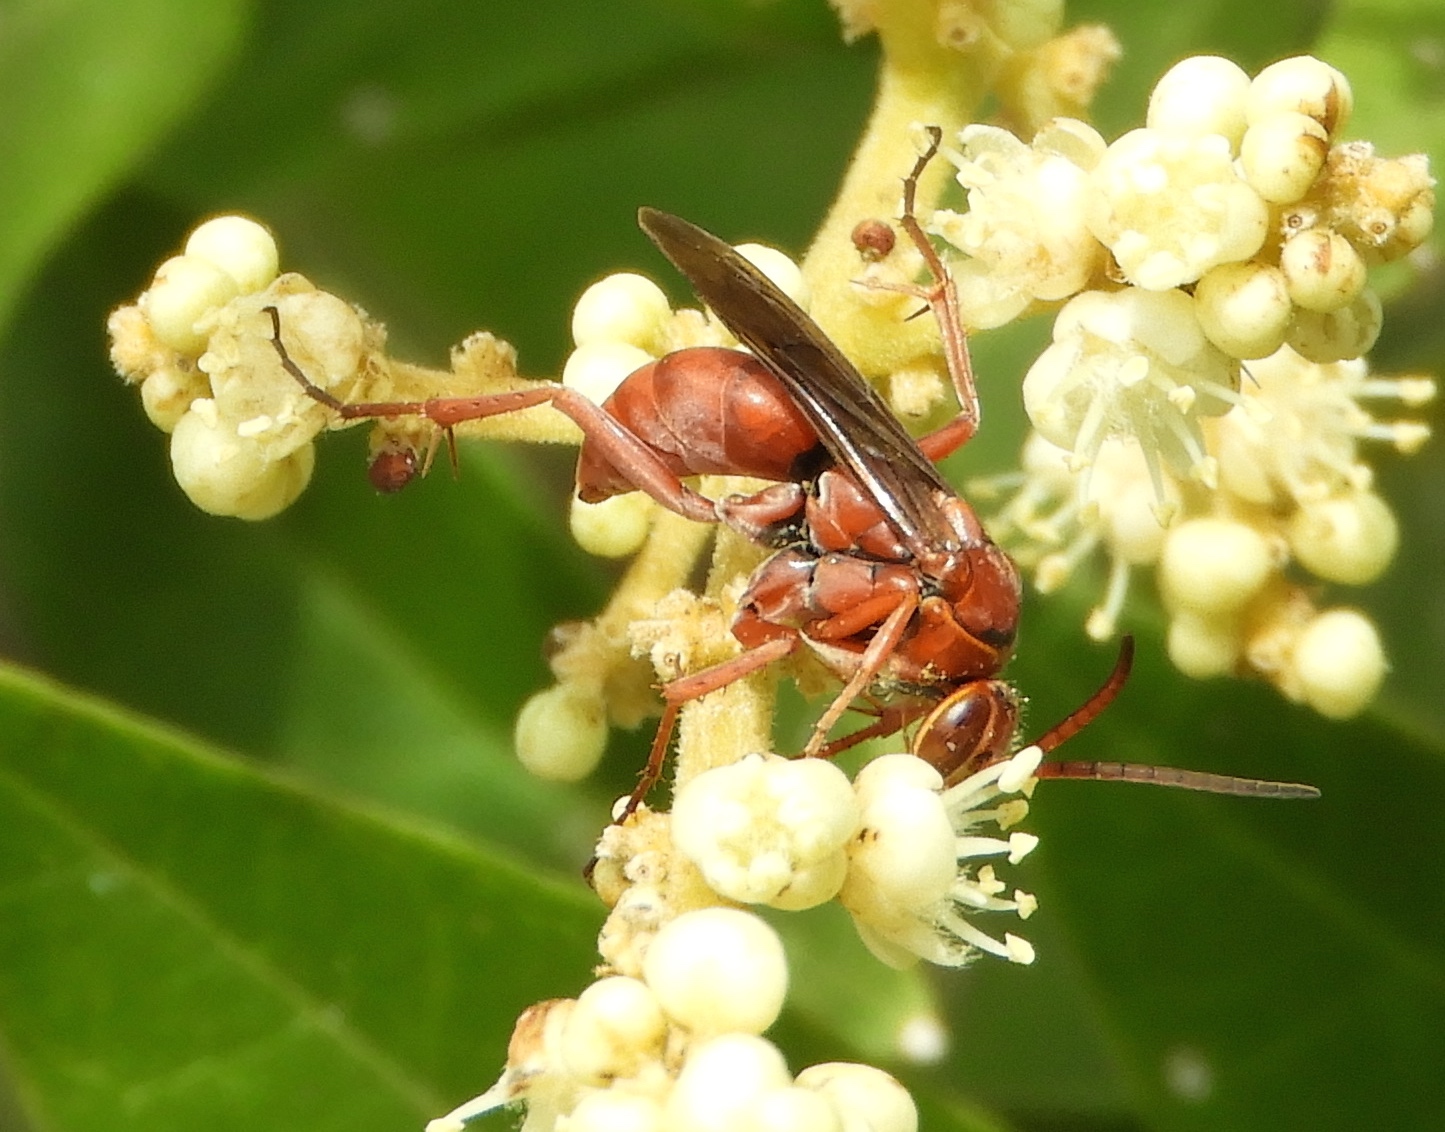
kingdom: Animalia
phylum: Arthropoda
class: Insecta
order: Hymenoptera
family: Pompilidae
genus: Tachypompilus
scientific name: Tachypompilus
